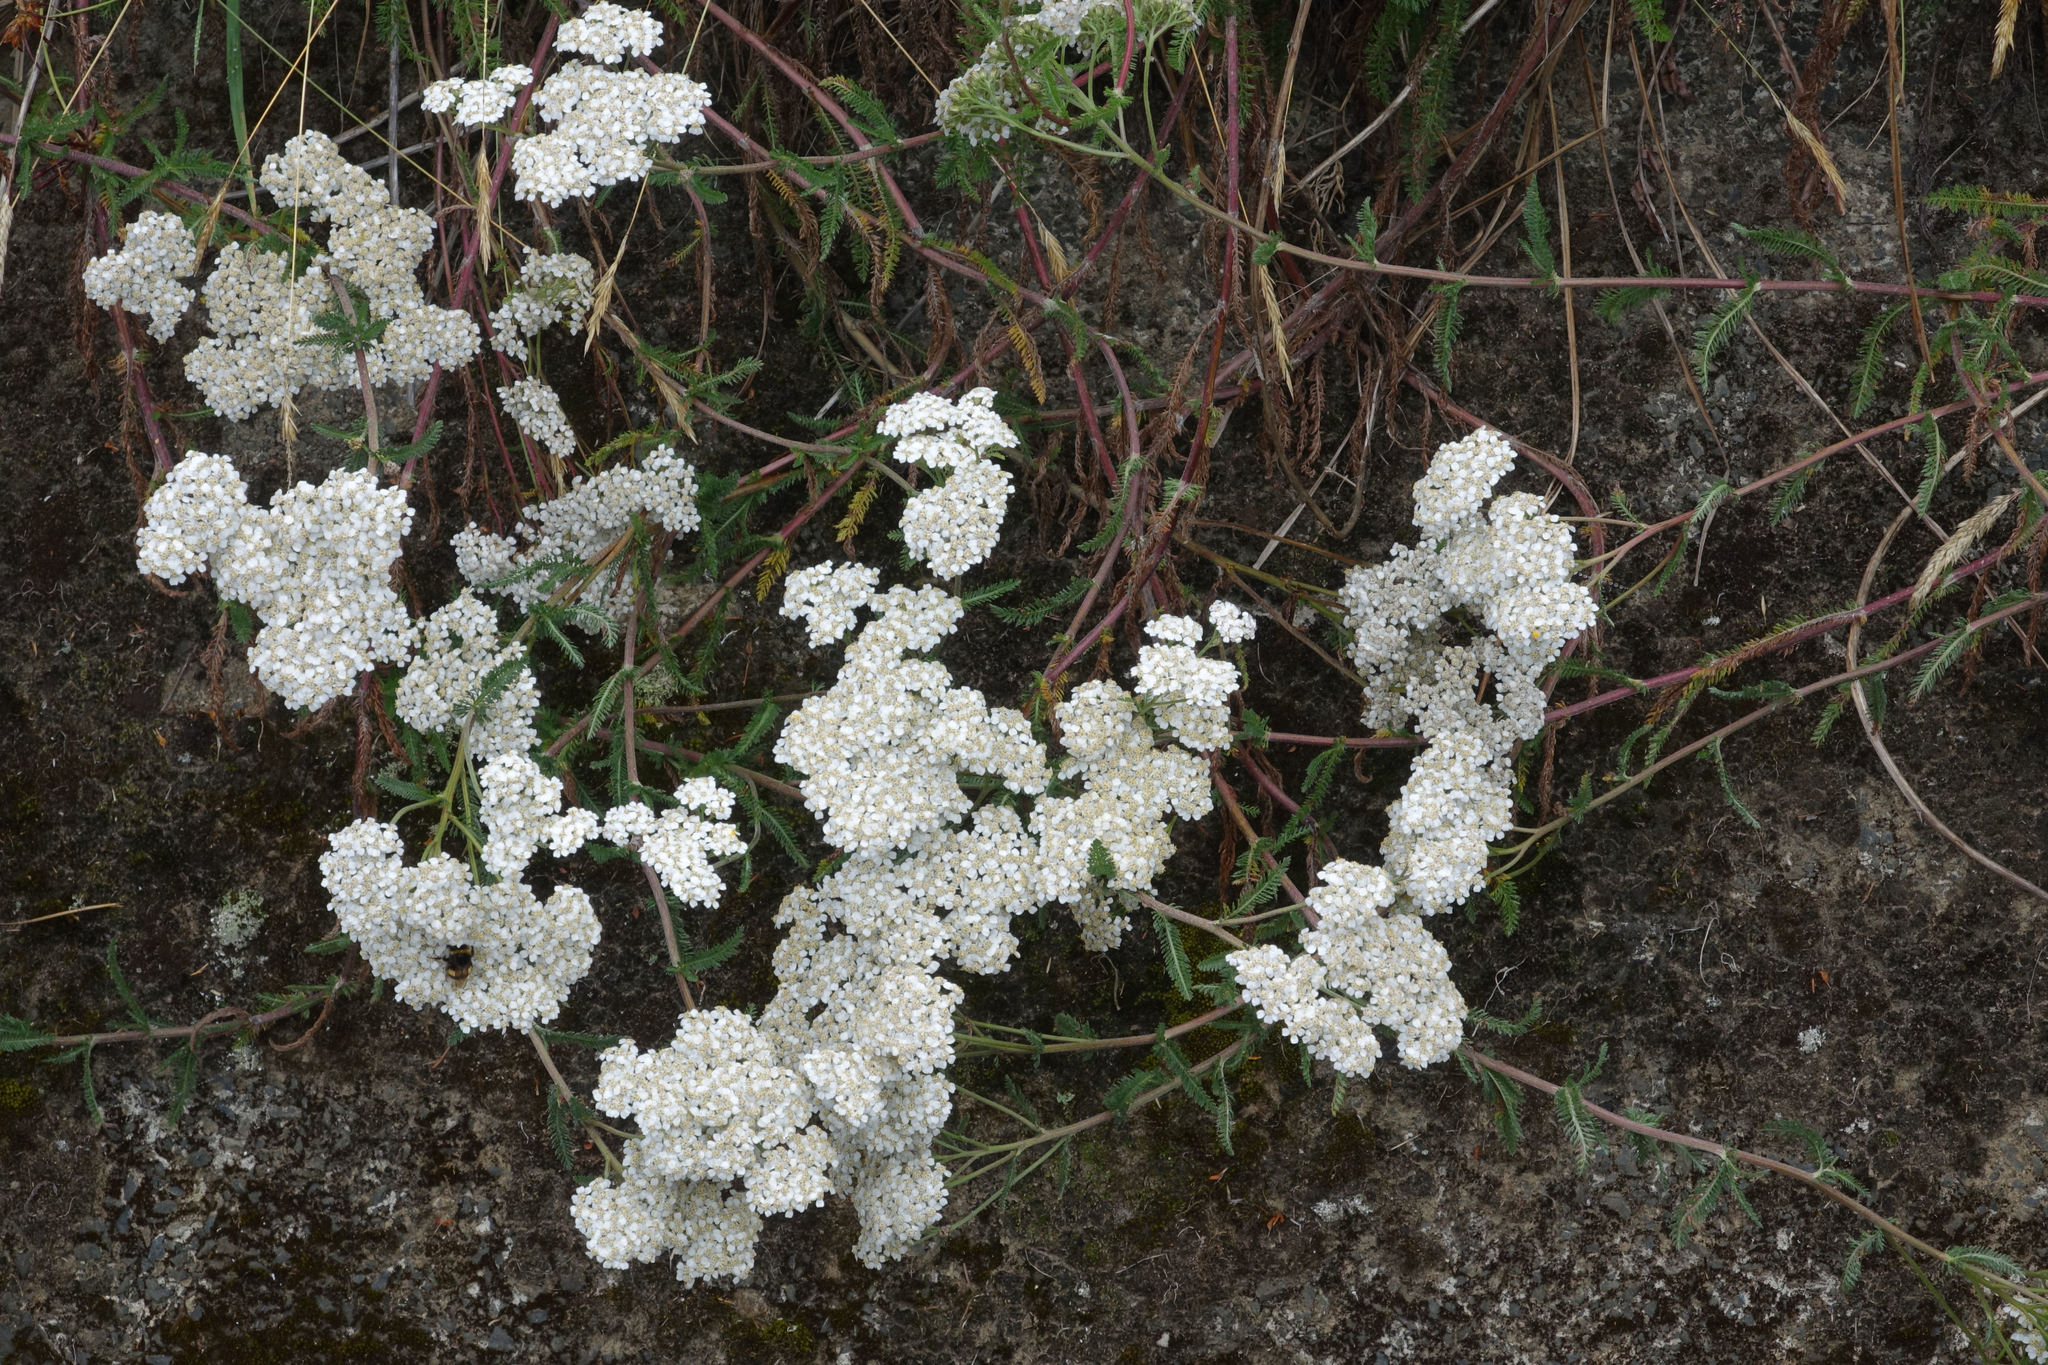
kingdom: Plantae
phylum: Tracheophyta
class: Magnoliopsida
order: Asterales
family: Asteraceae
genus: Achillea
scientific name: Achillea millefolium
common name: Yarrow
